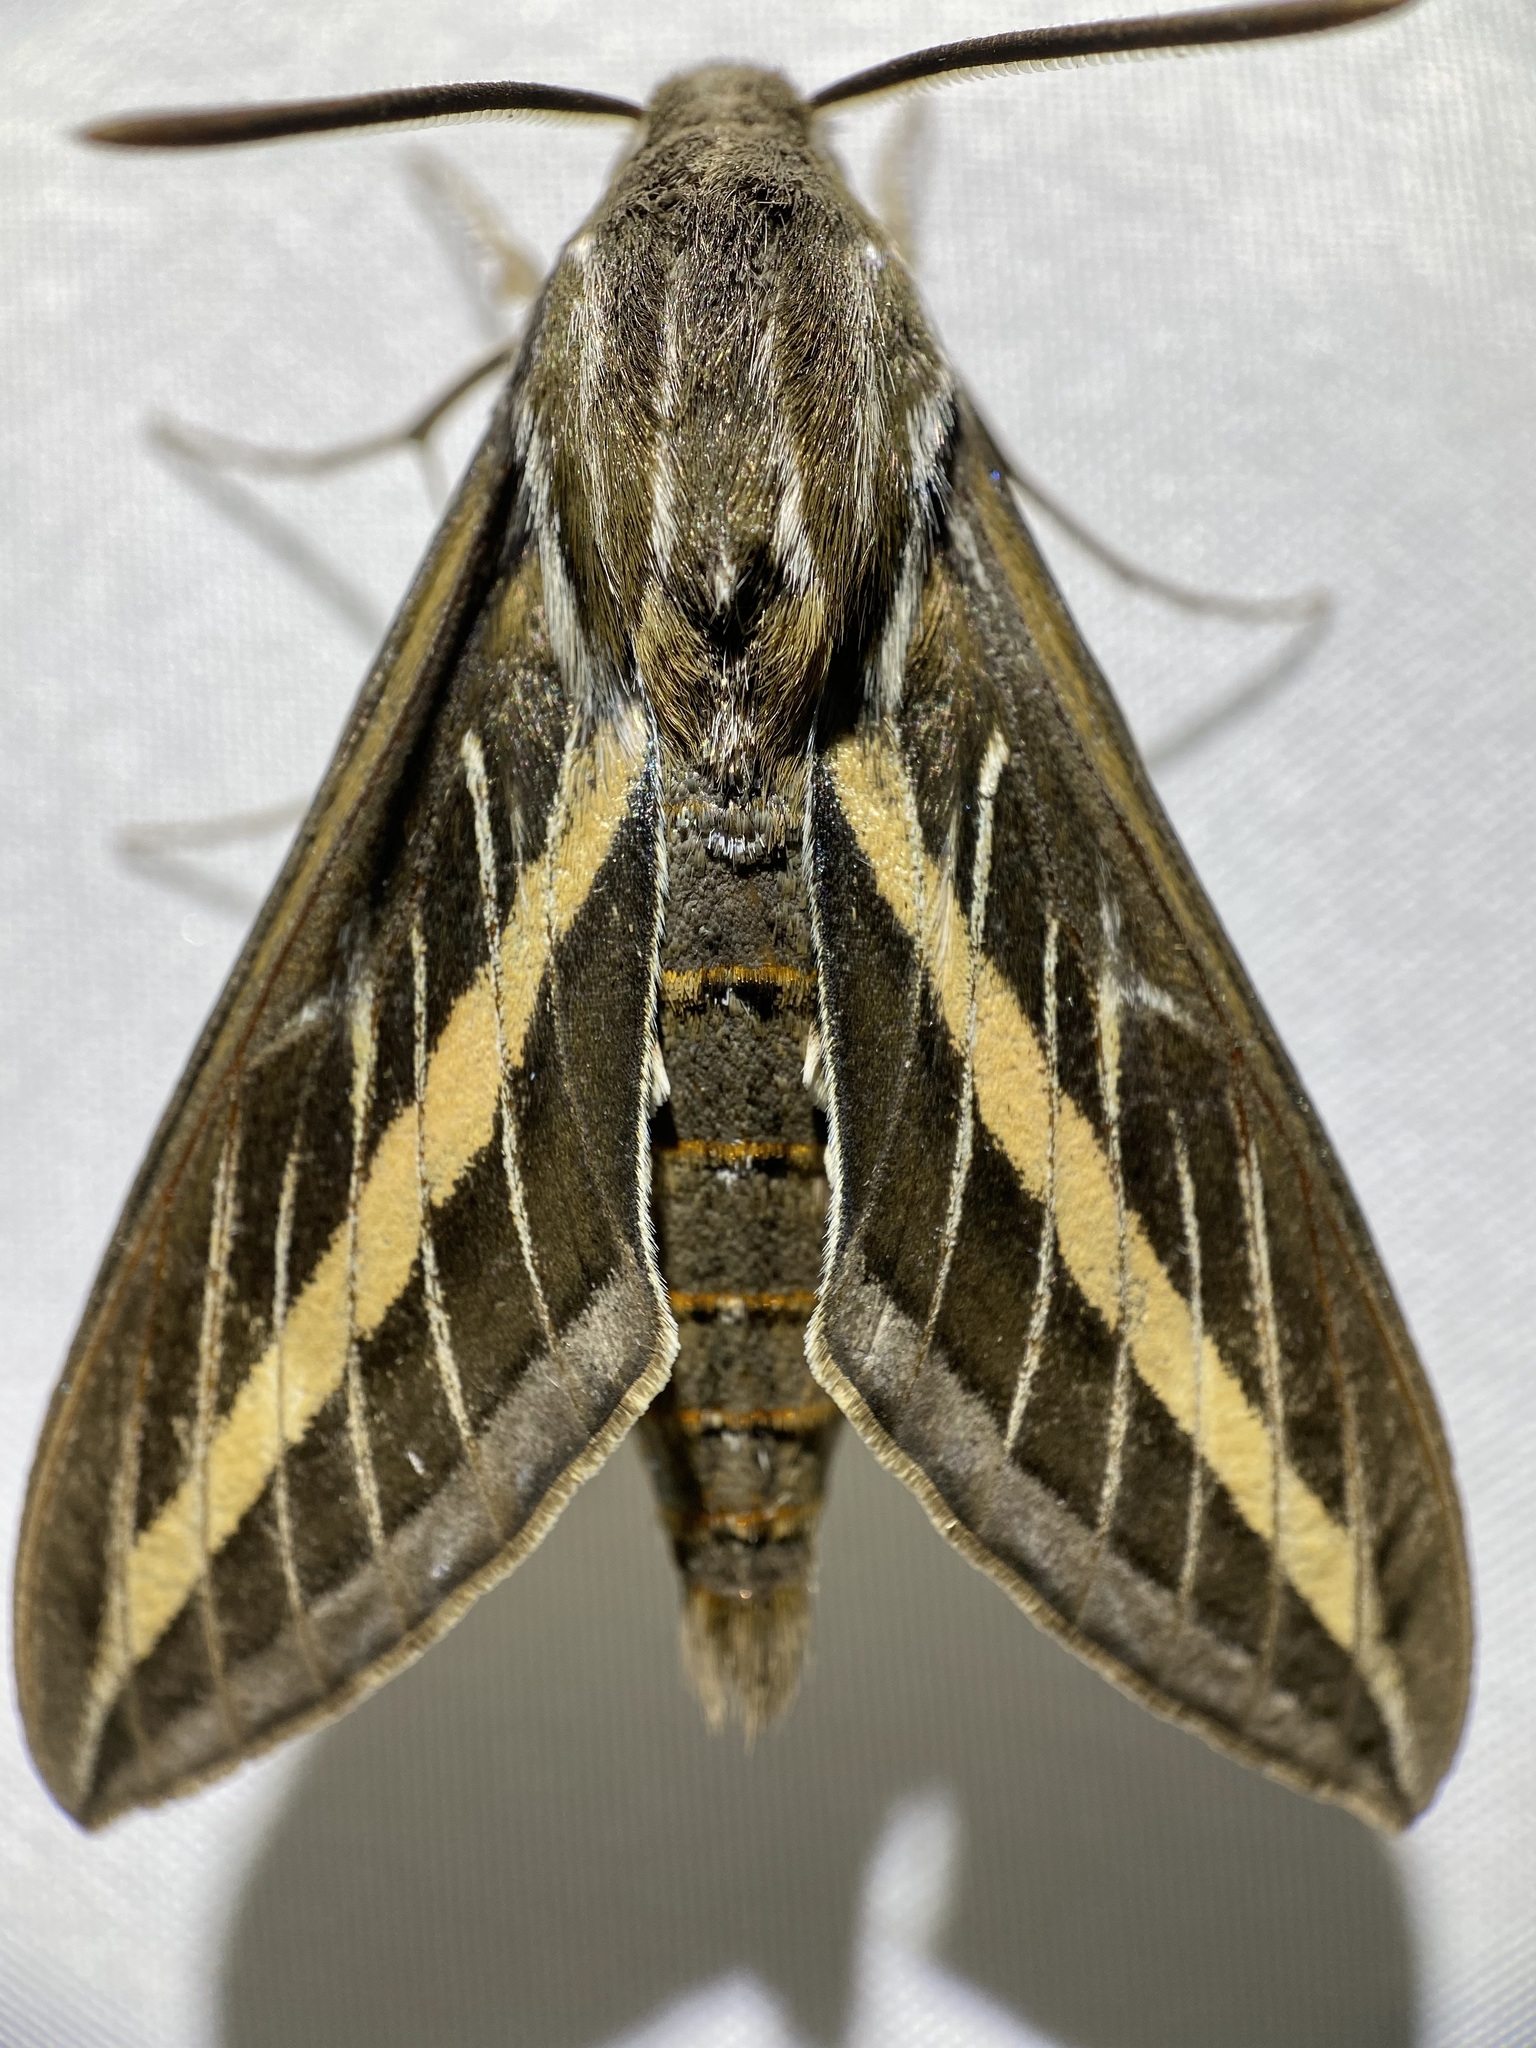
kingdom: Animalia
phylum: Arthropoda
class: Insecta
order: Lepidoptera
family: Sphingidae
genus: Hyles
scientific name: Hyles lineata
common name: White-lined sphinx
